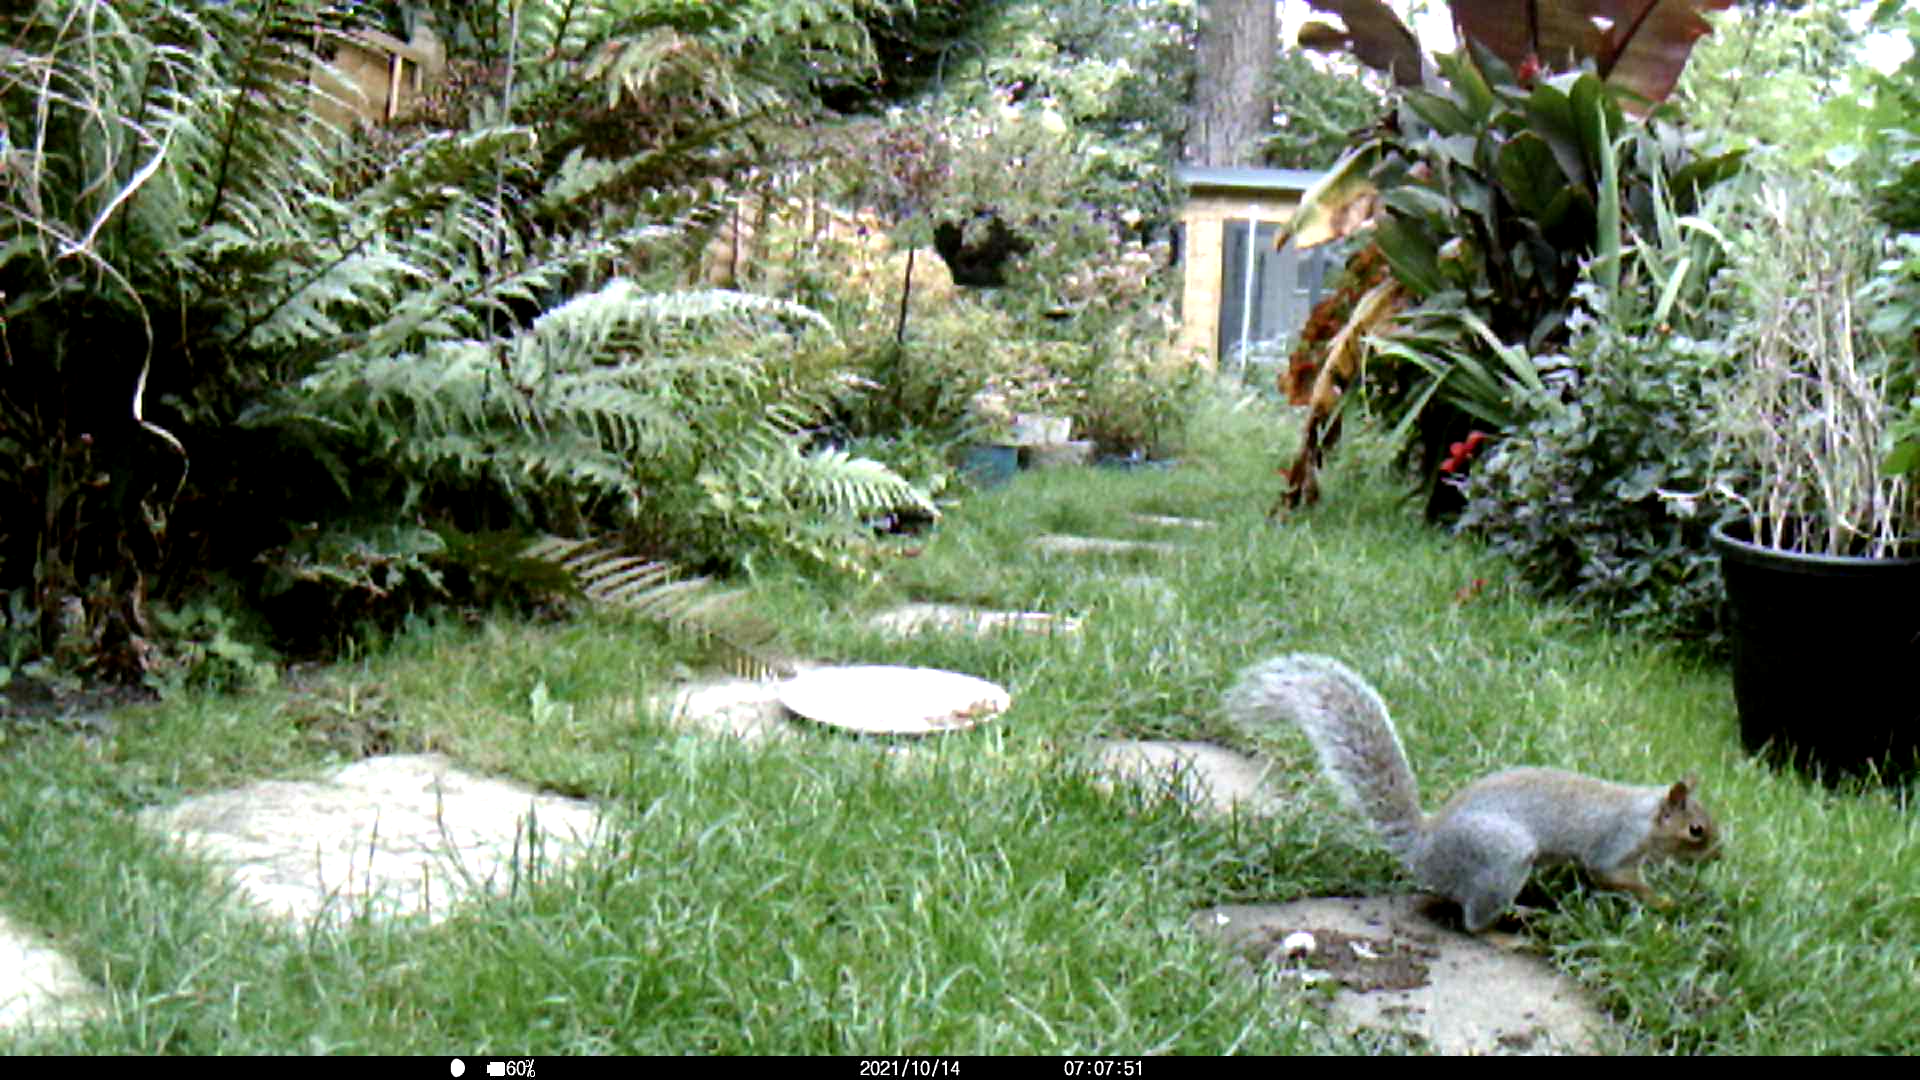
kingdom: Animalia
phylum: Chordata
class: Mammalia
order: Rodentia
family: Sciuridae
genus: Sciurus
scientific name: Sciurus carolinensis
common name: Eastern gray squirrel
